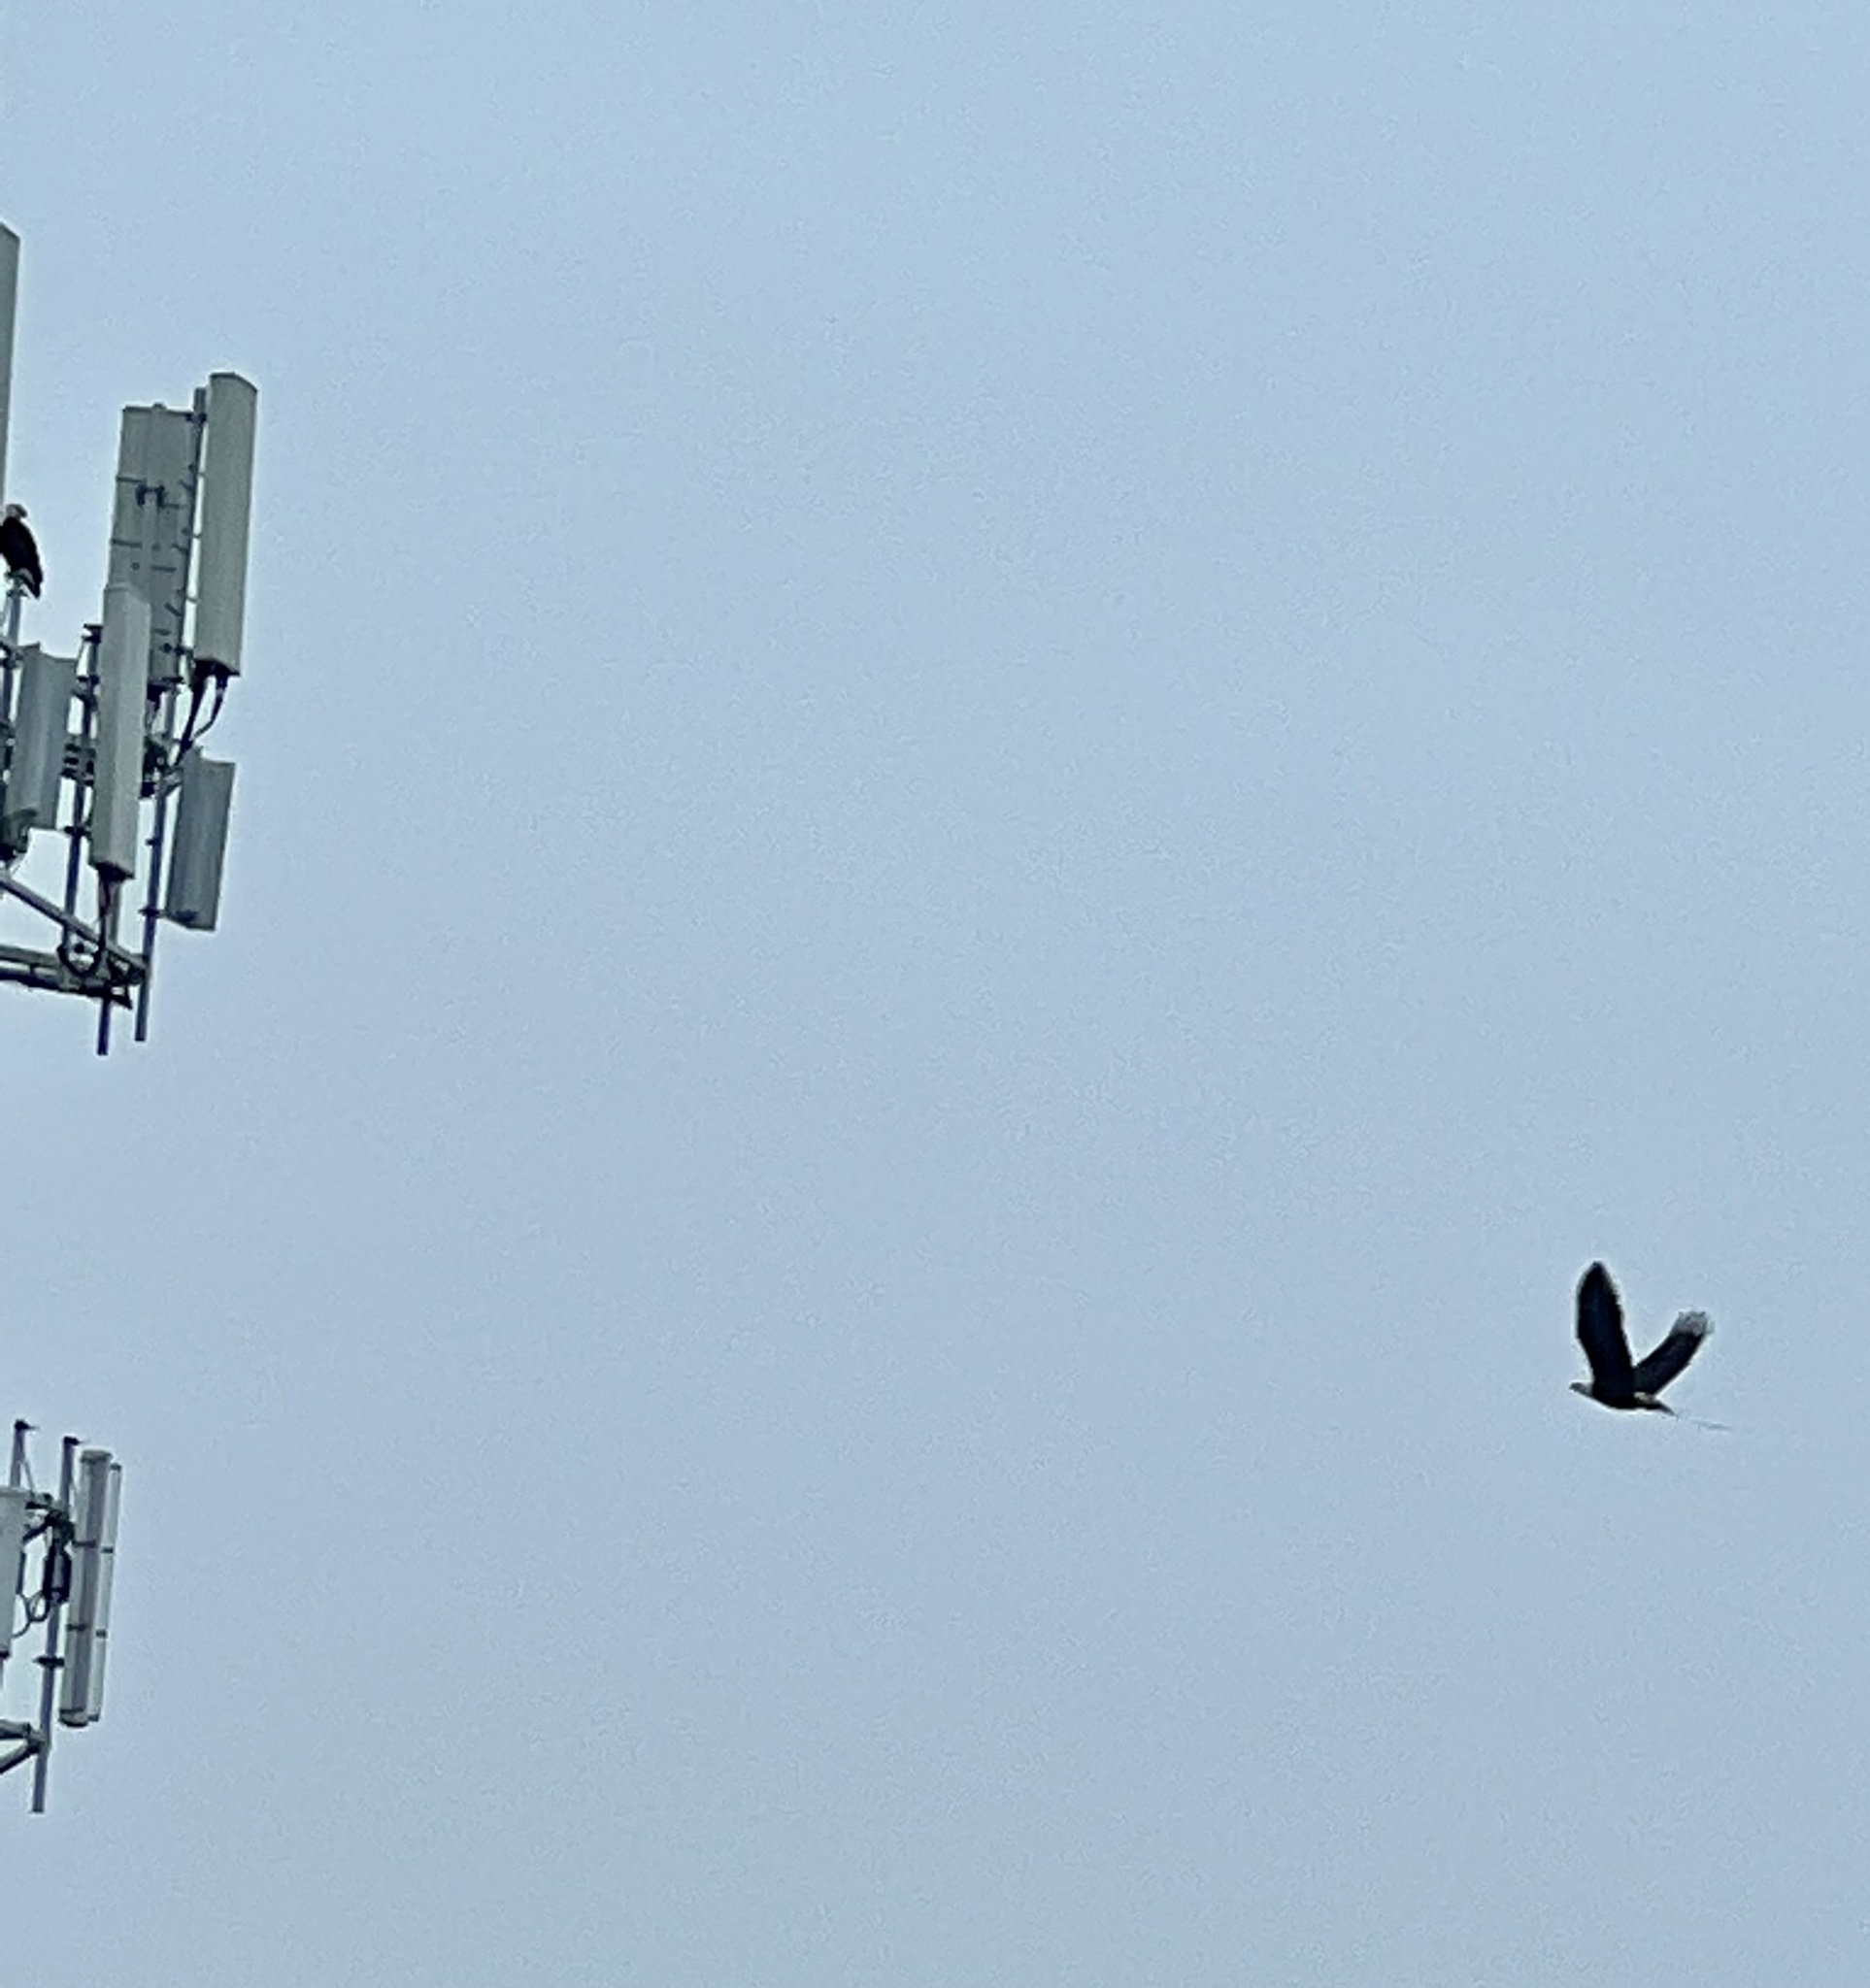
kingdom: Animalia
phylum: Chordata
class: Aves
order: Accipitriformes
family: Accipitridae
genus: Haliaeetus
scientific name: Haliaeetus leucocephalus
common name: Bald eagle
